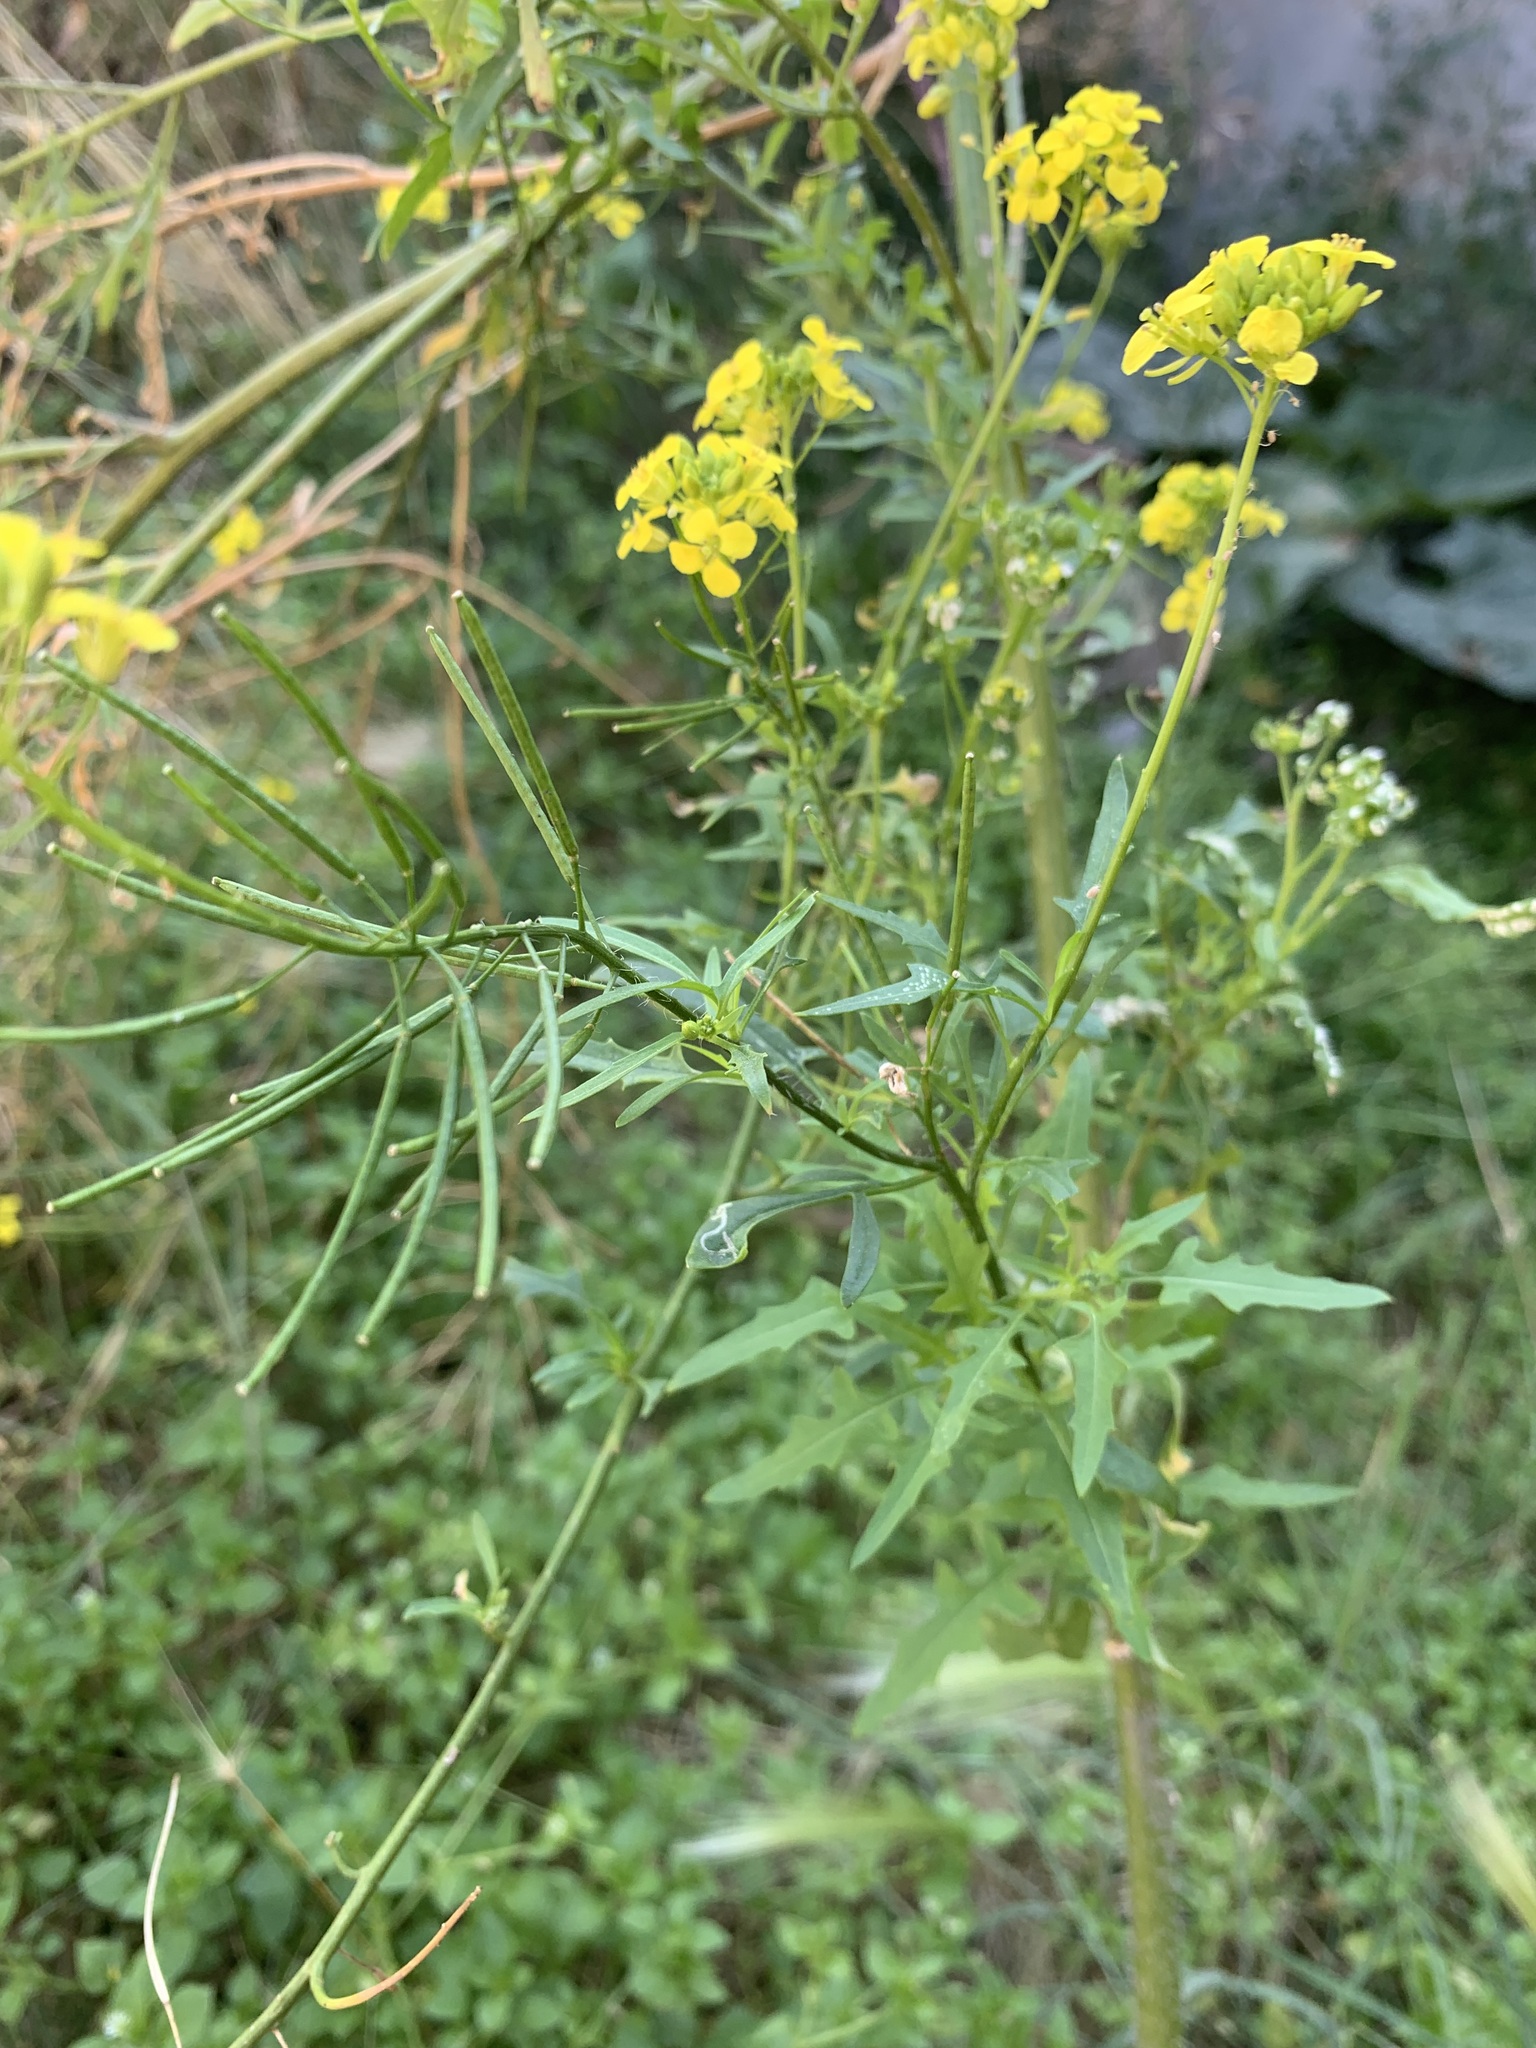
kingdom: Plantae
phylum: Tracheophyta
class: Magnoliopsida
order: Brassicales
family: Brassicaceae
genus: Sisymbrium
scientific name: Sisymbrium loeselii
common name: False london-rocket
